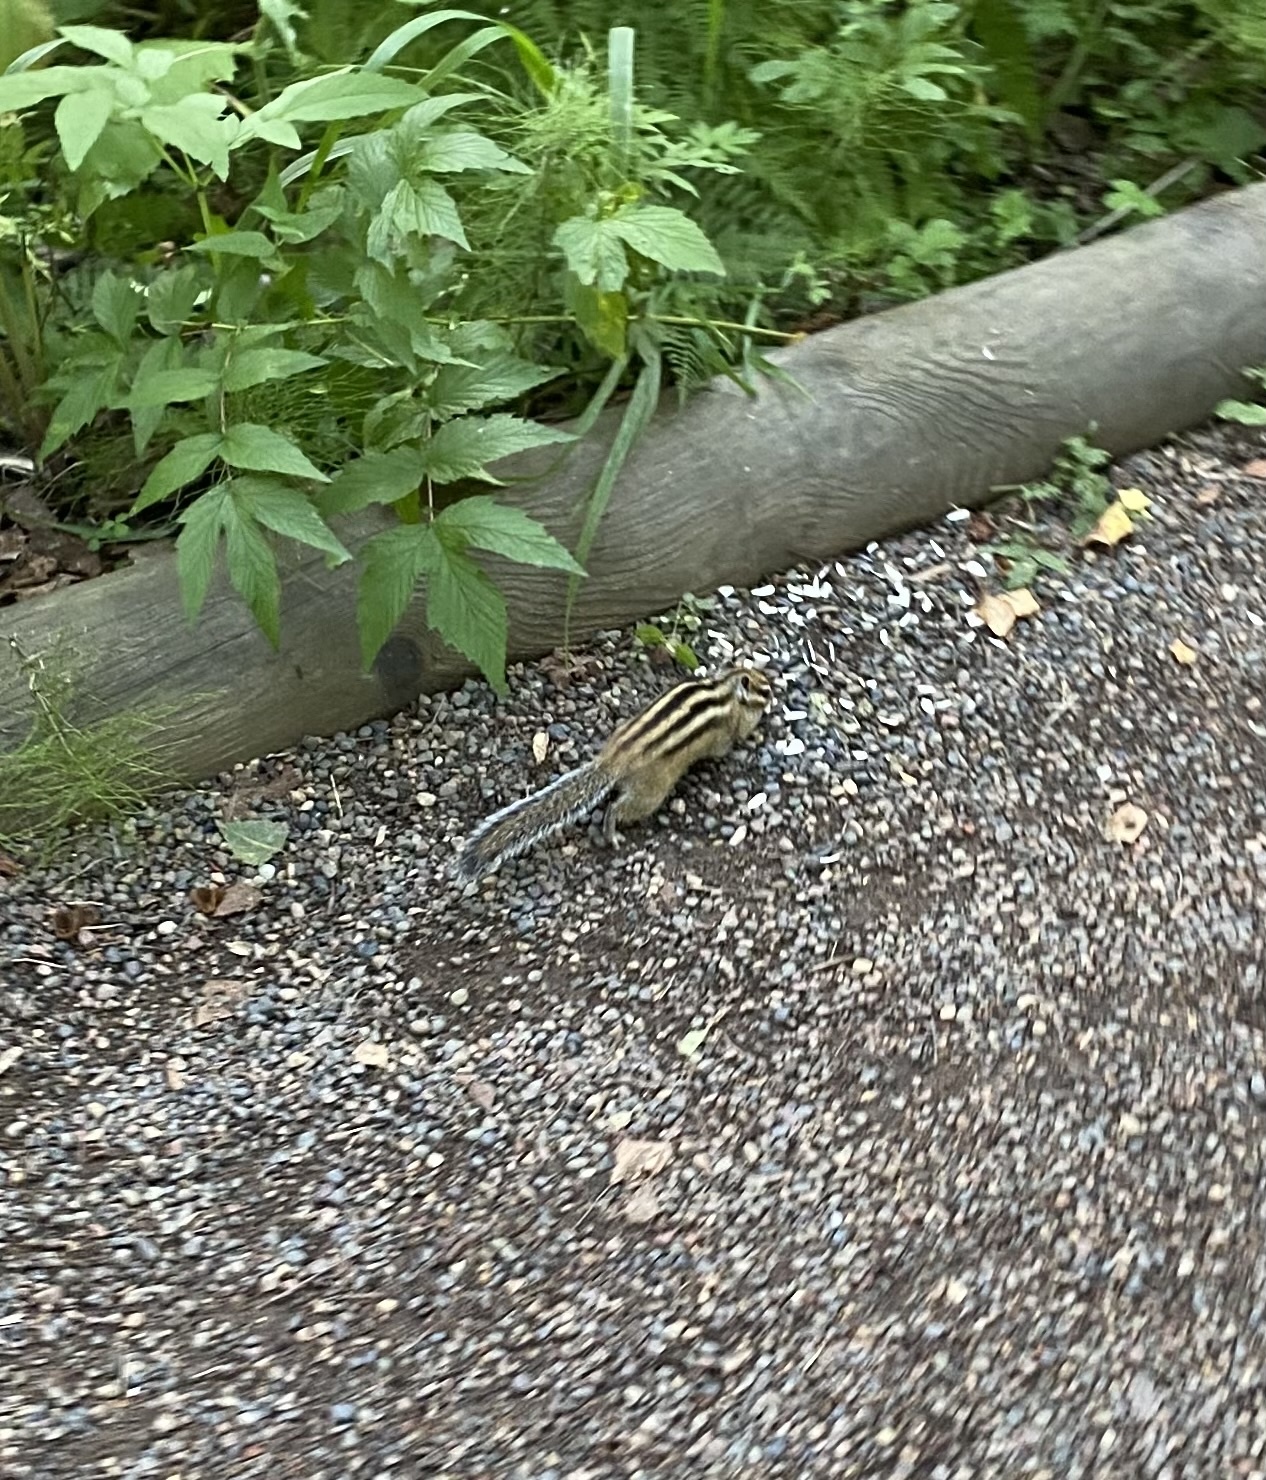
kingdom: Animalia
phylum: Chordata
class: Mammalia
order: Rodentia
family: Sciuridae
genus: Tamias
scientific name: Tamias sibiricus
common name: Siberian chipmunk
